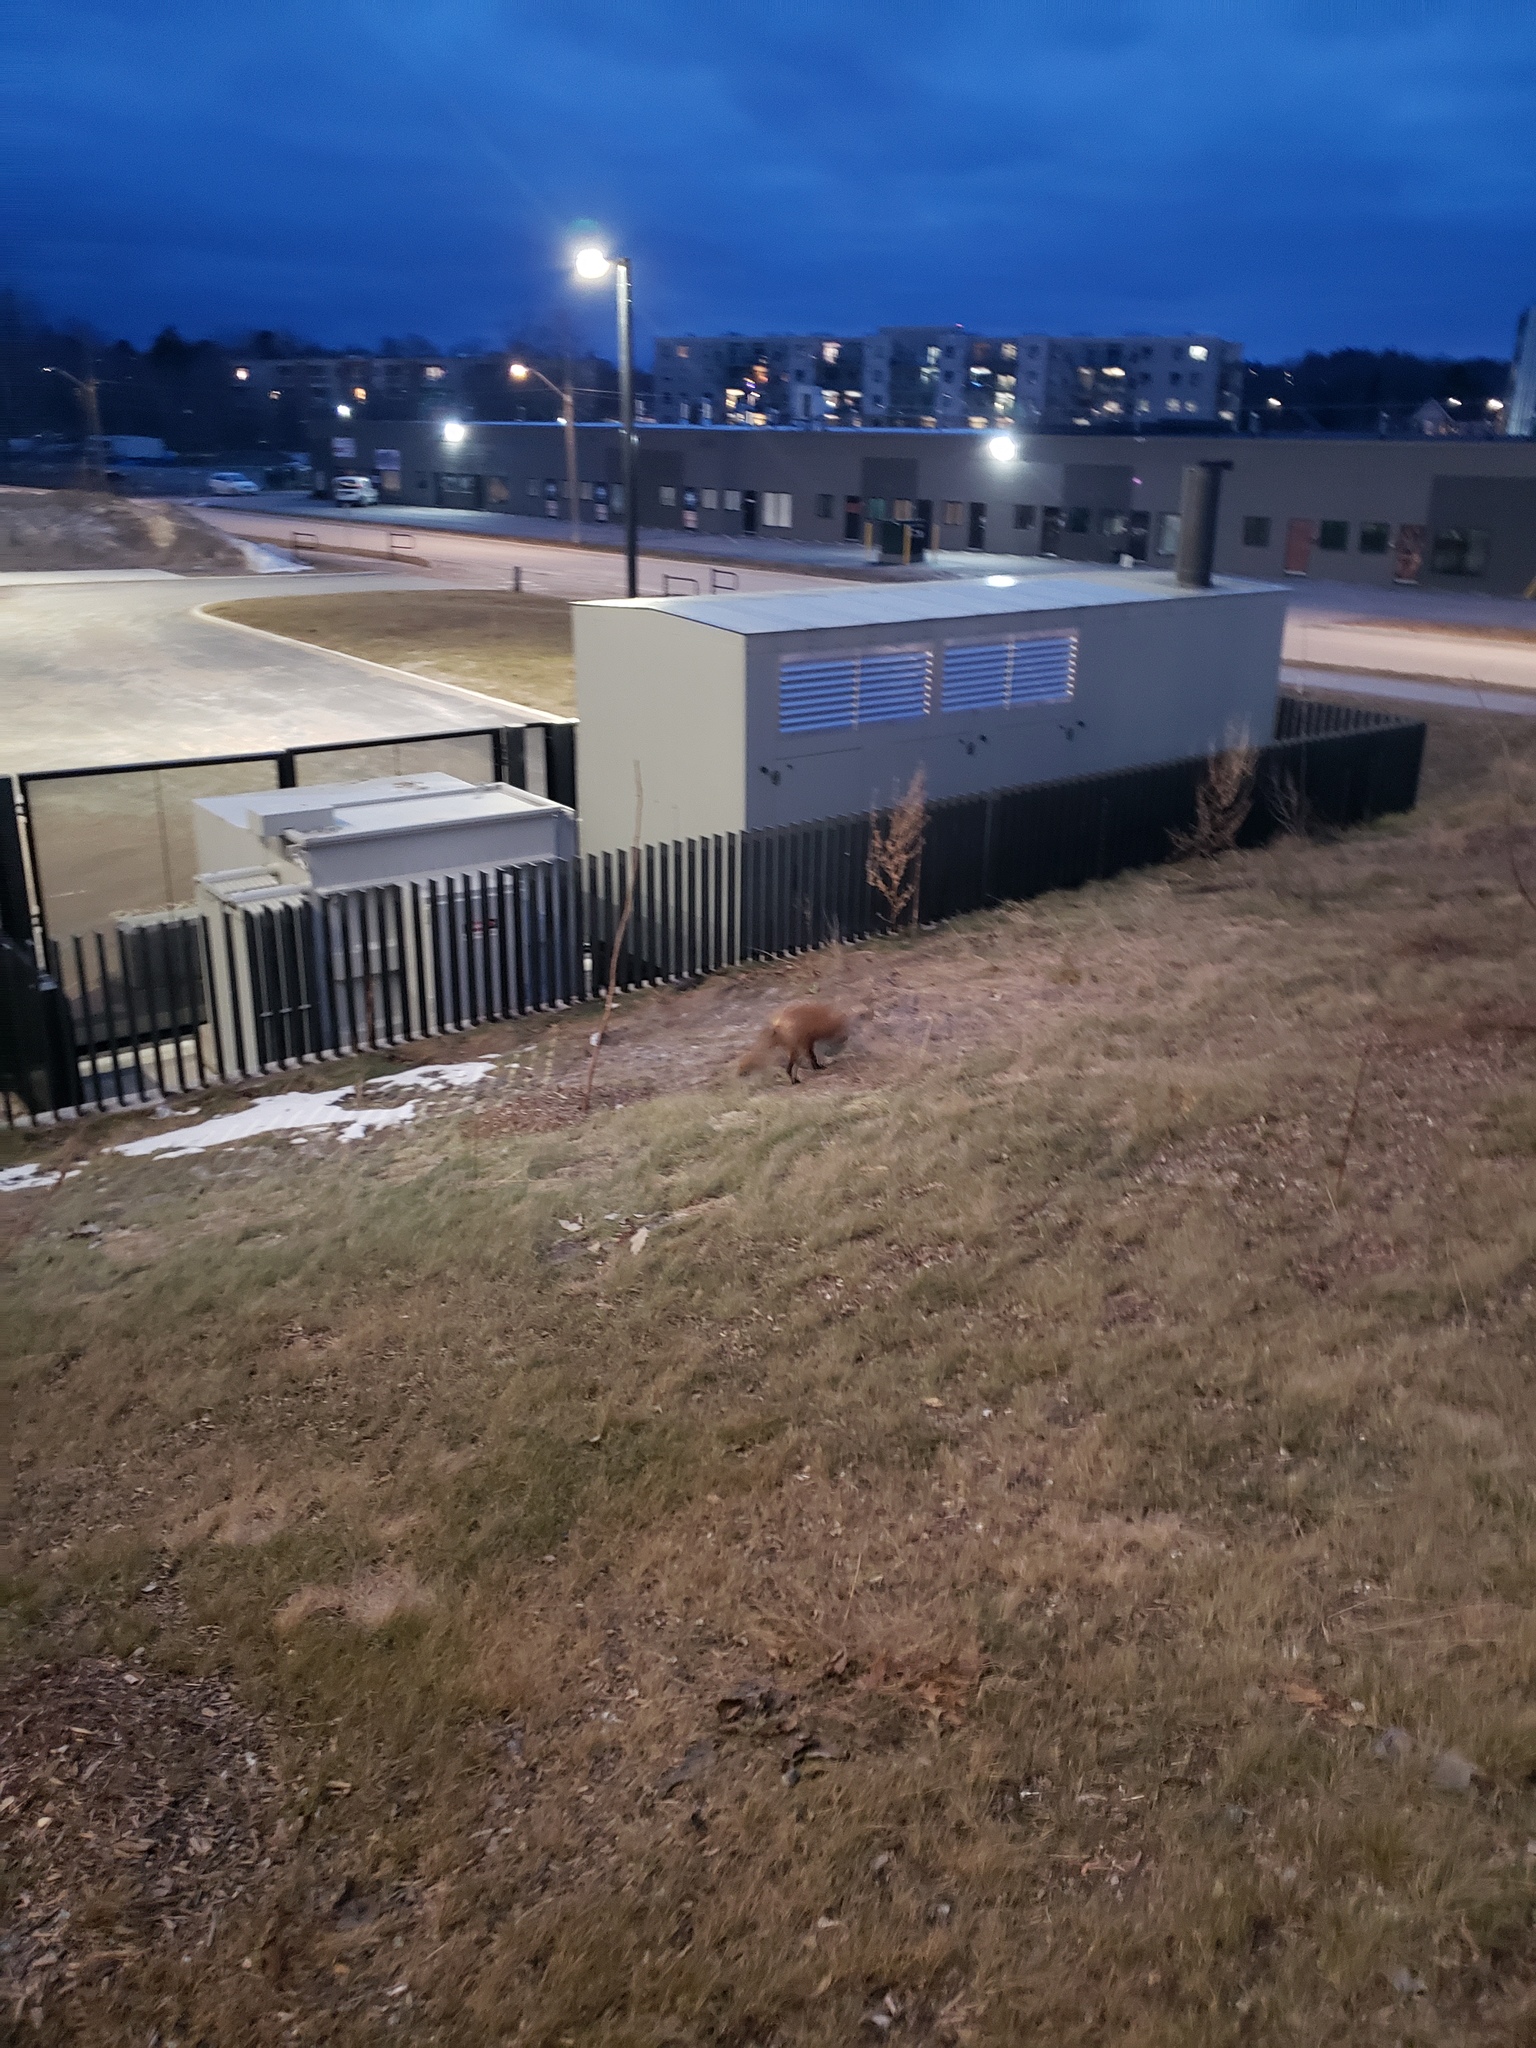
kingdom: Animalia
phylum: Chordata
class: Mammalia
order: Carnivora
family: Canidae
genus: Vulpes
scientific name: Vulpes vulpes
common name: Red fox
